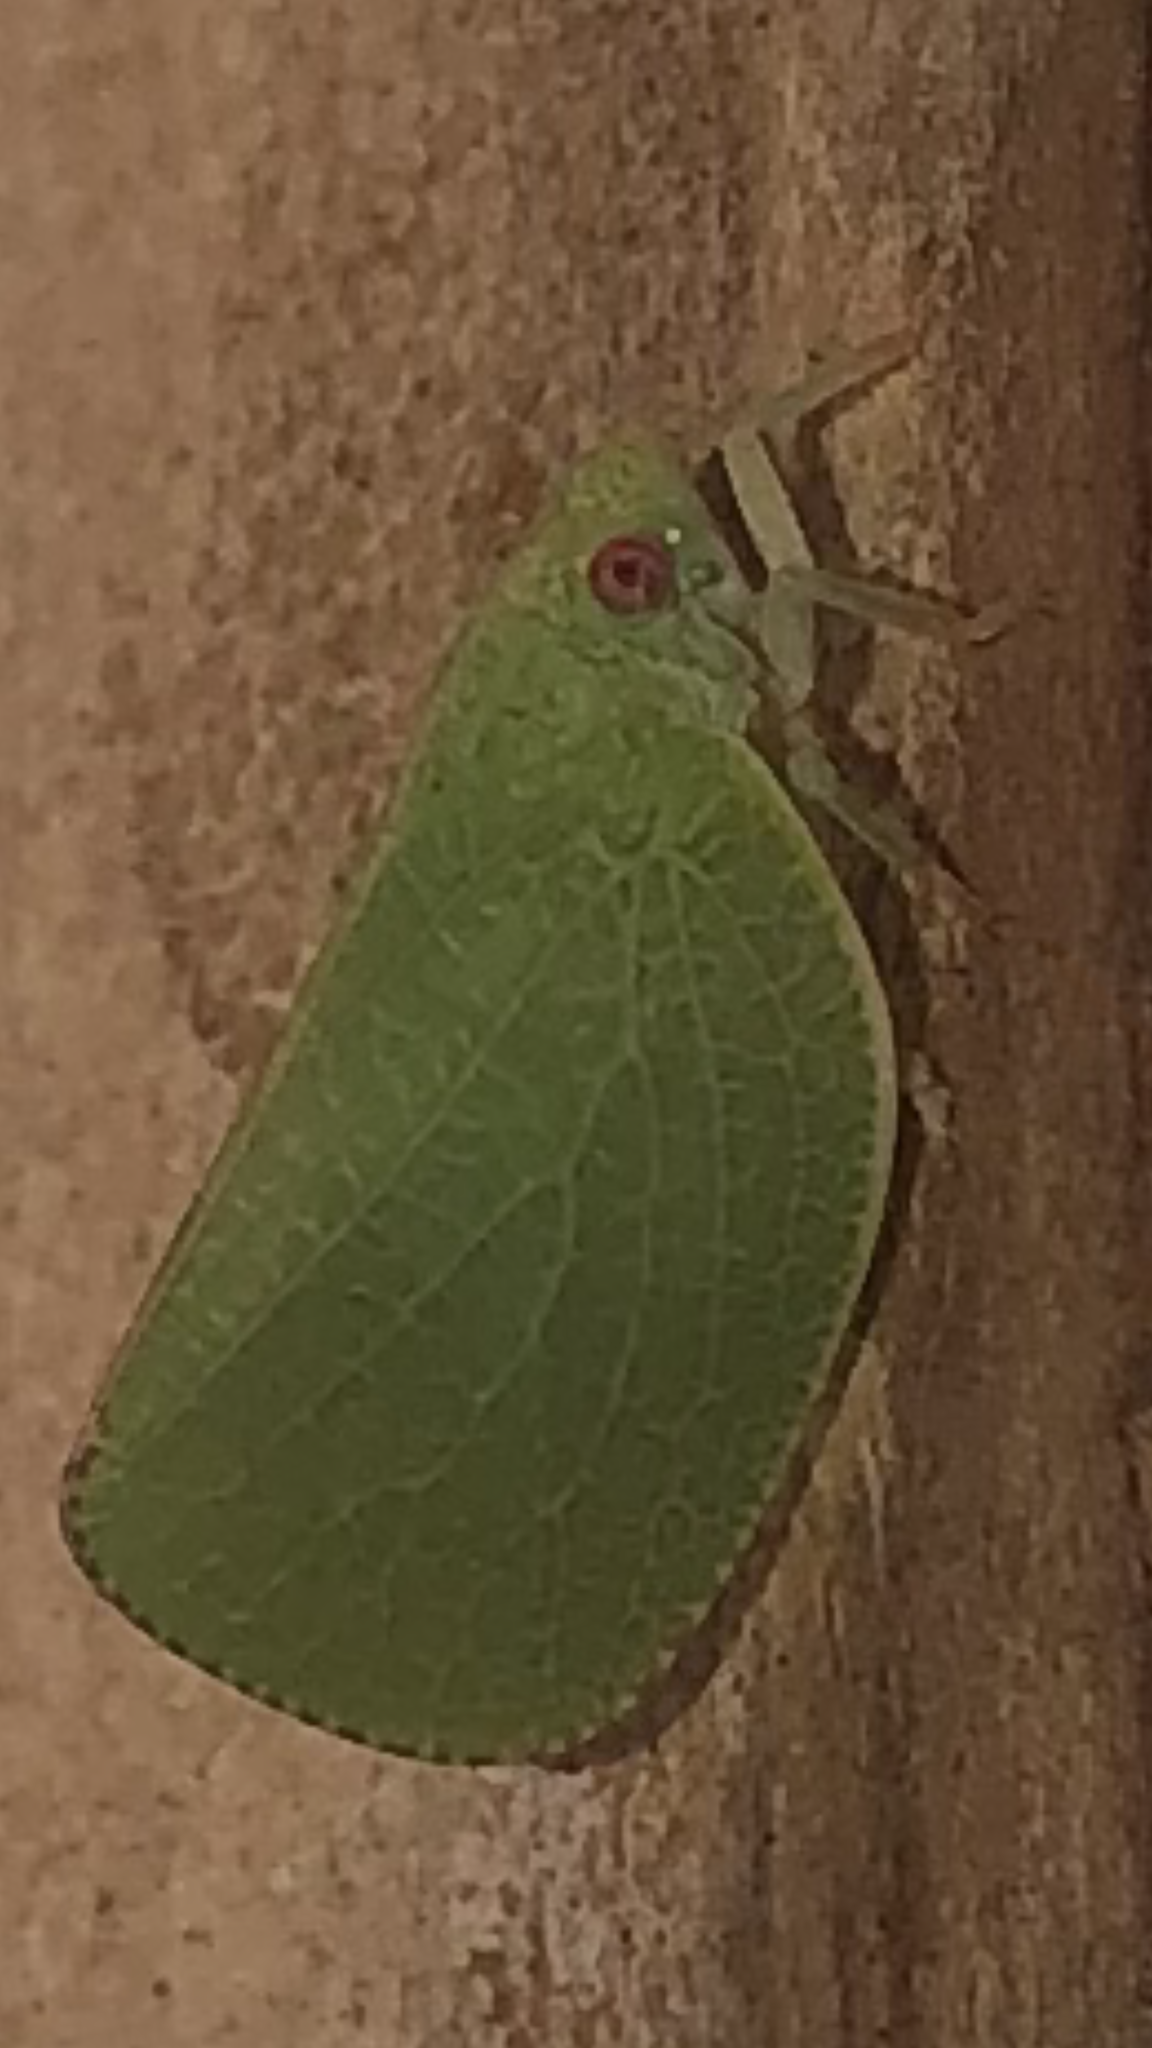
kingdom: Animalia
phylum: Arthropoda
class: Insecta
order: Hemiptera
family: Acanaloniidae
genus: Acanalonia
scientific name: Acanalonia conica
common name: Green cone-headed planthopper
